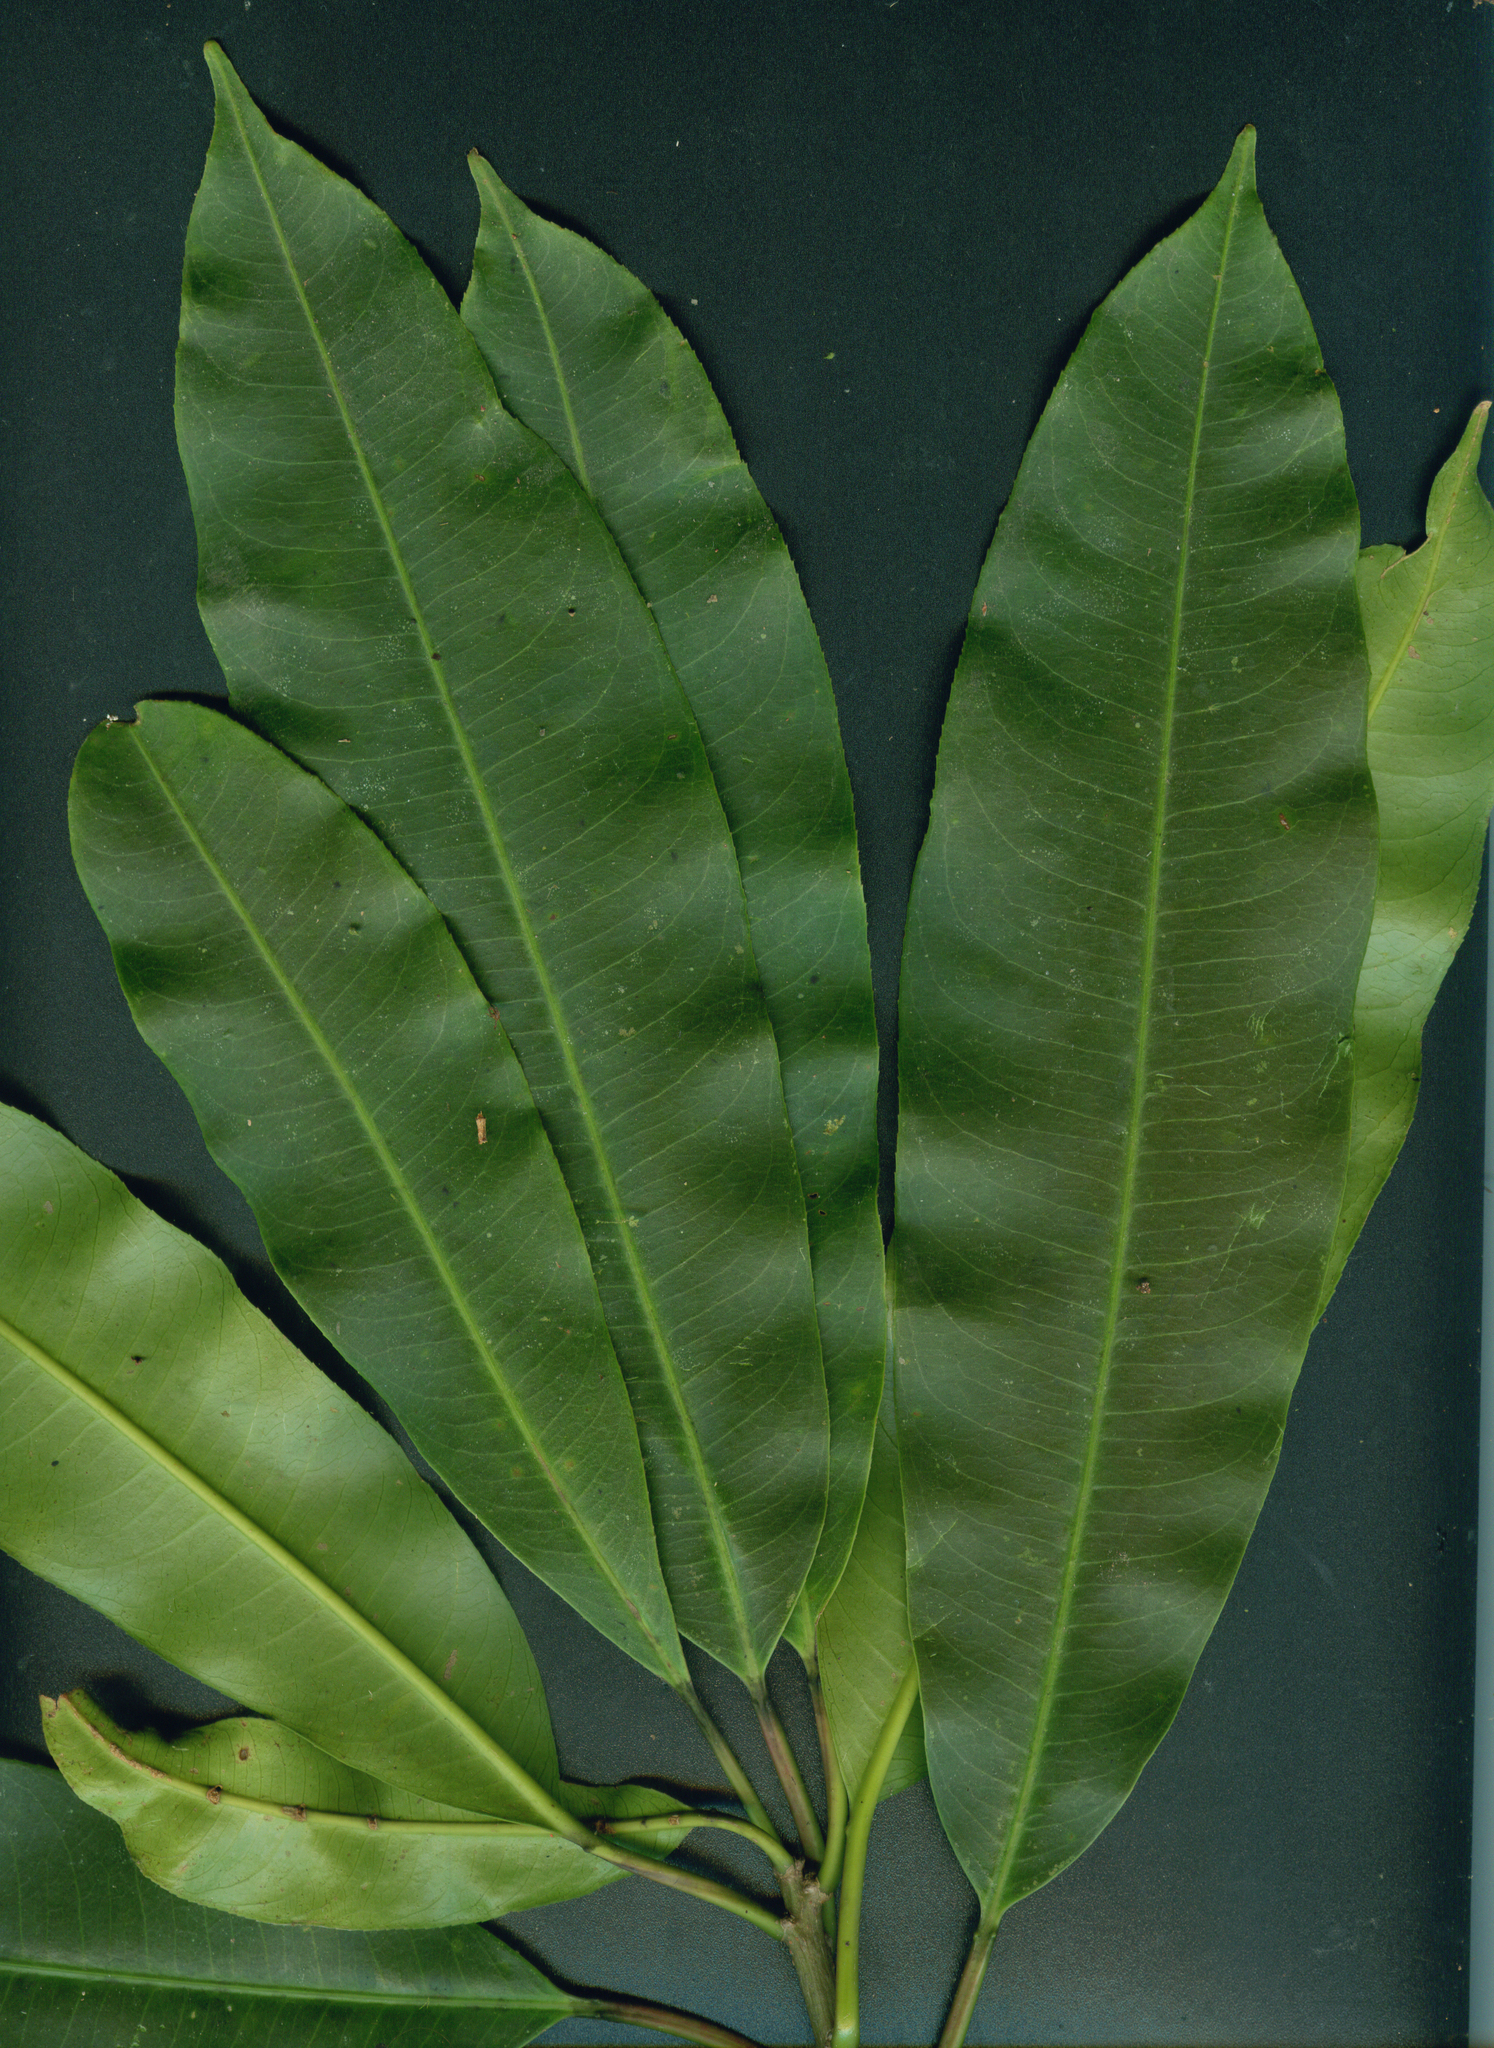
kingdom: Plantae
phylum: Tracheophyta
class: Magnoliopsida
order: Malpighiales
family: Euphorbiaceae
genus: Sapium
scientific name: Sapium glandulosum
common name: Milktree
